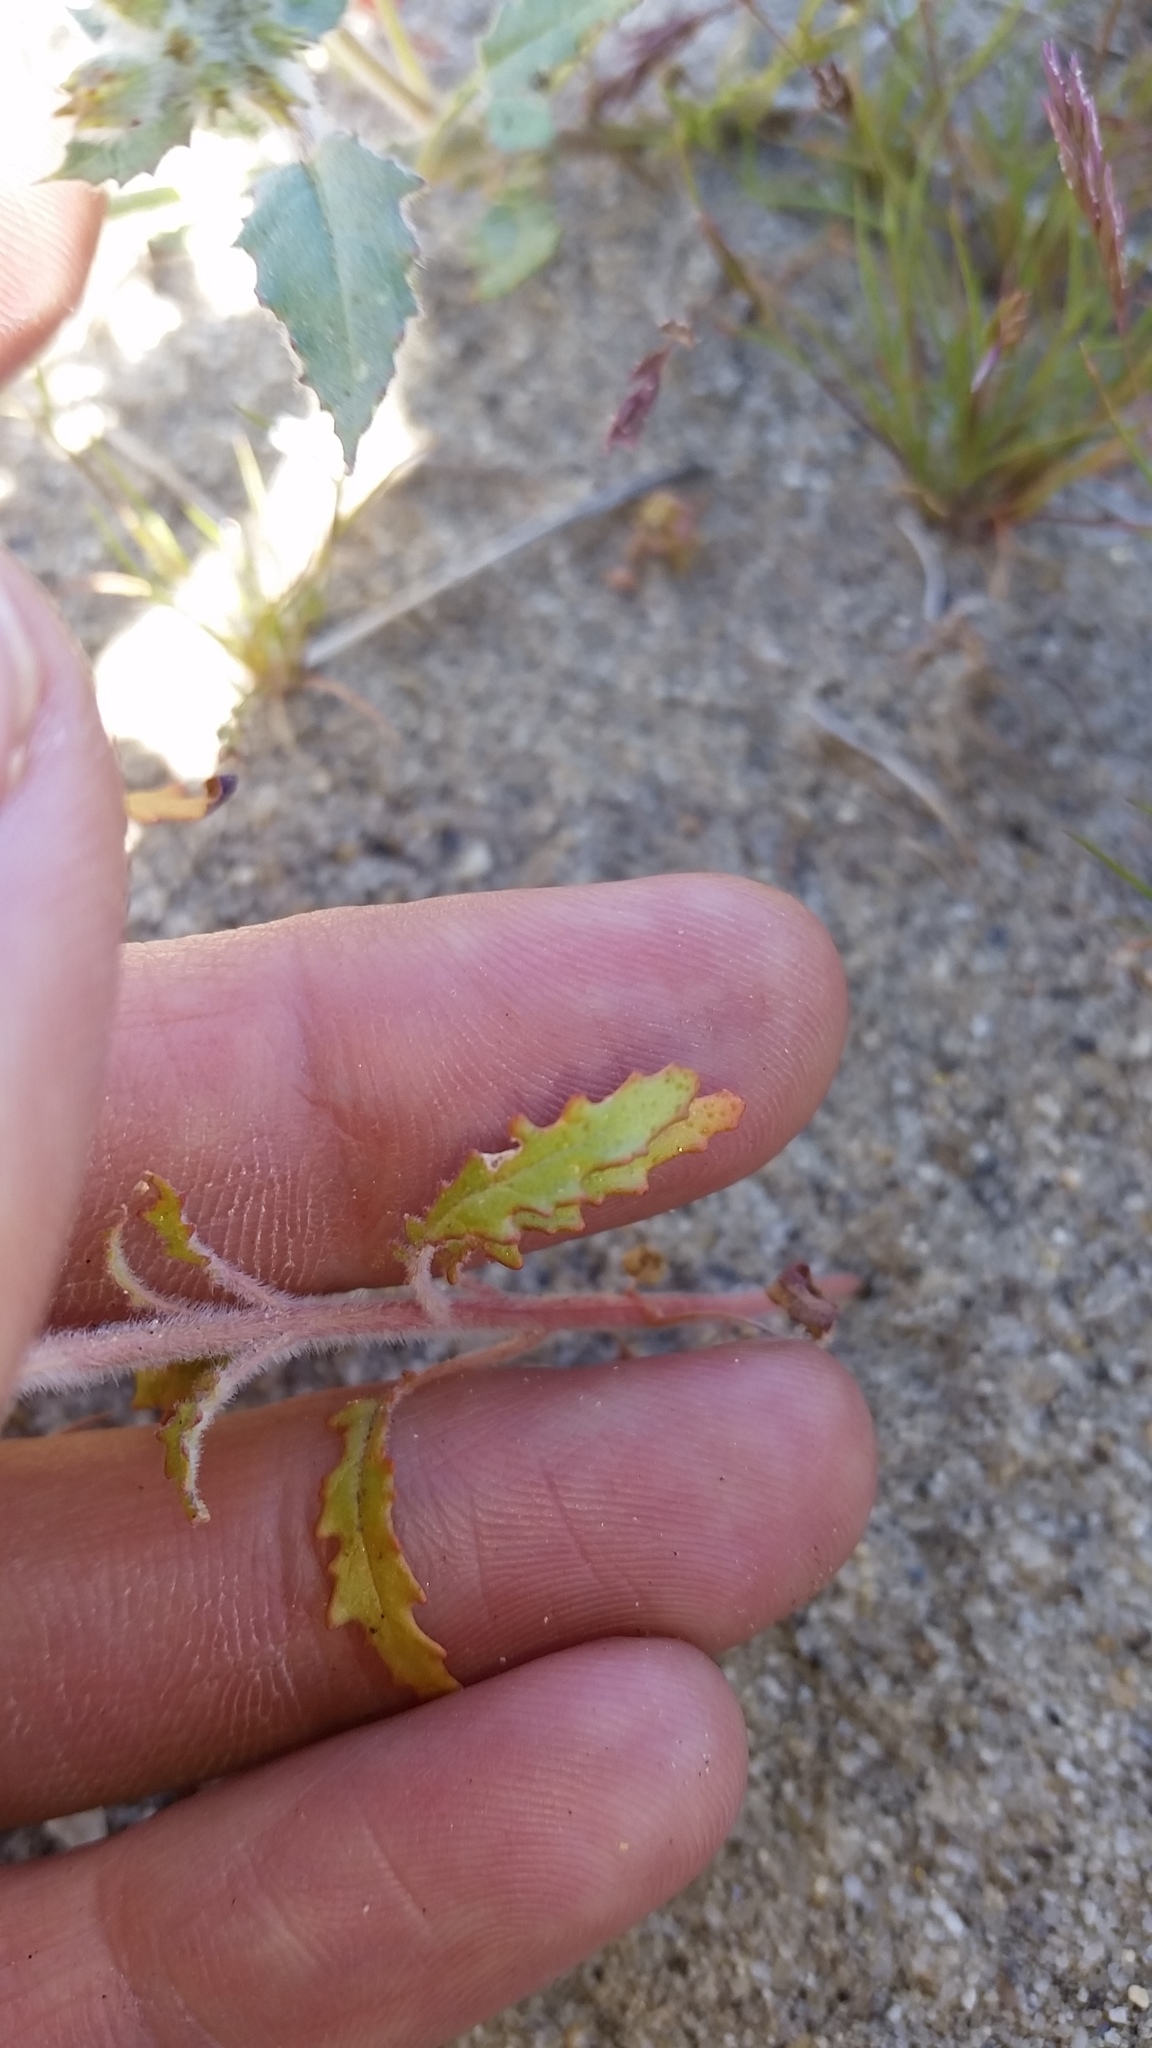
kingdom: Plantae
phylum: Tracheophyta
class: Magnoliopsida
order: Myrtales
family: Onagraceae
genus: Chylismia
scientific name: Chylismia claviformis
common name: Browneyes
